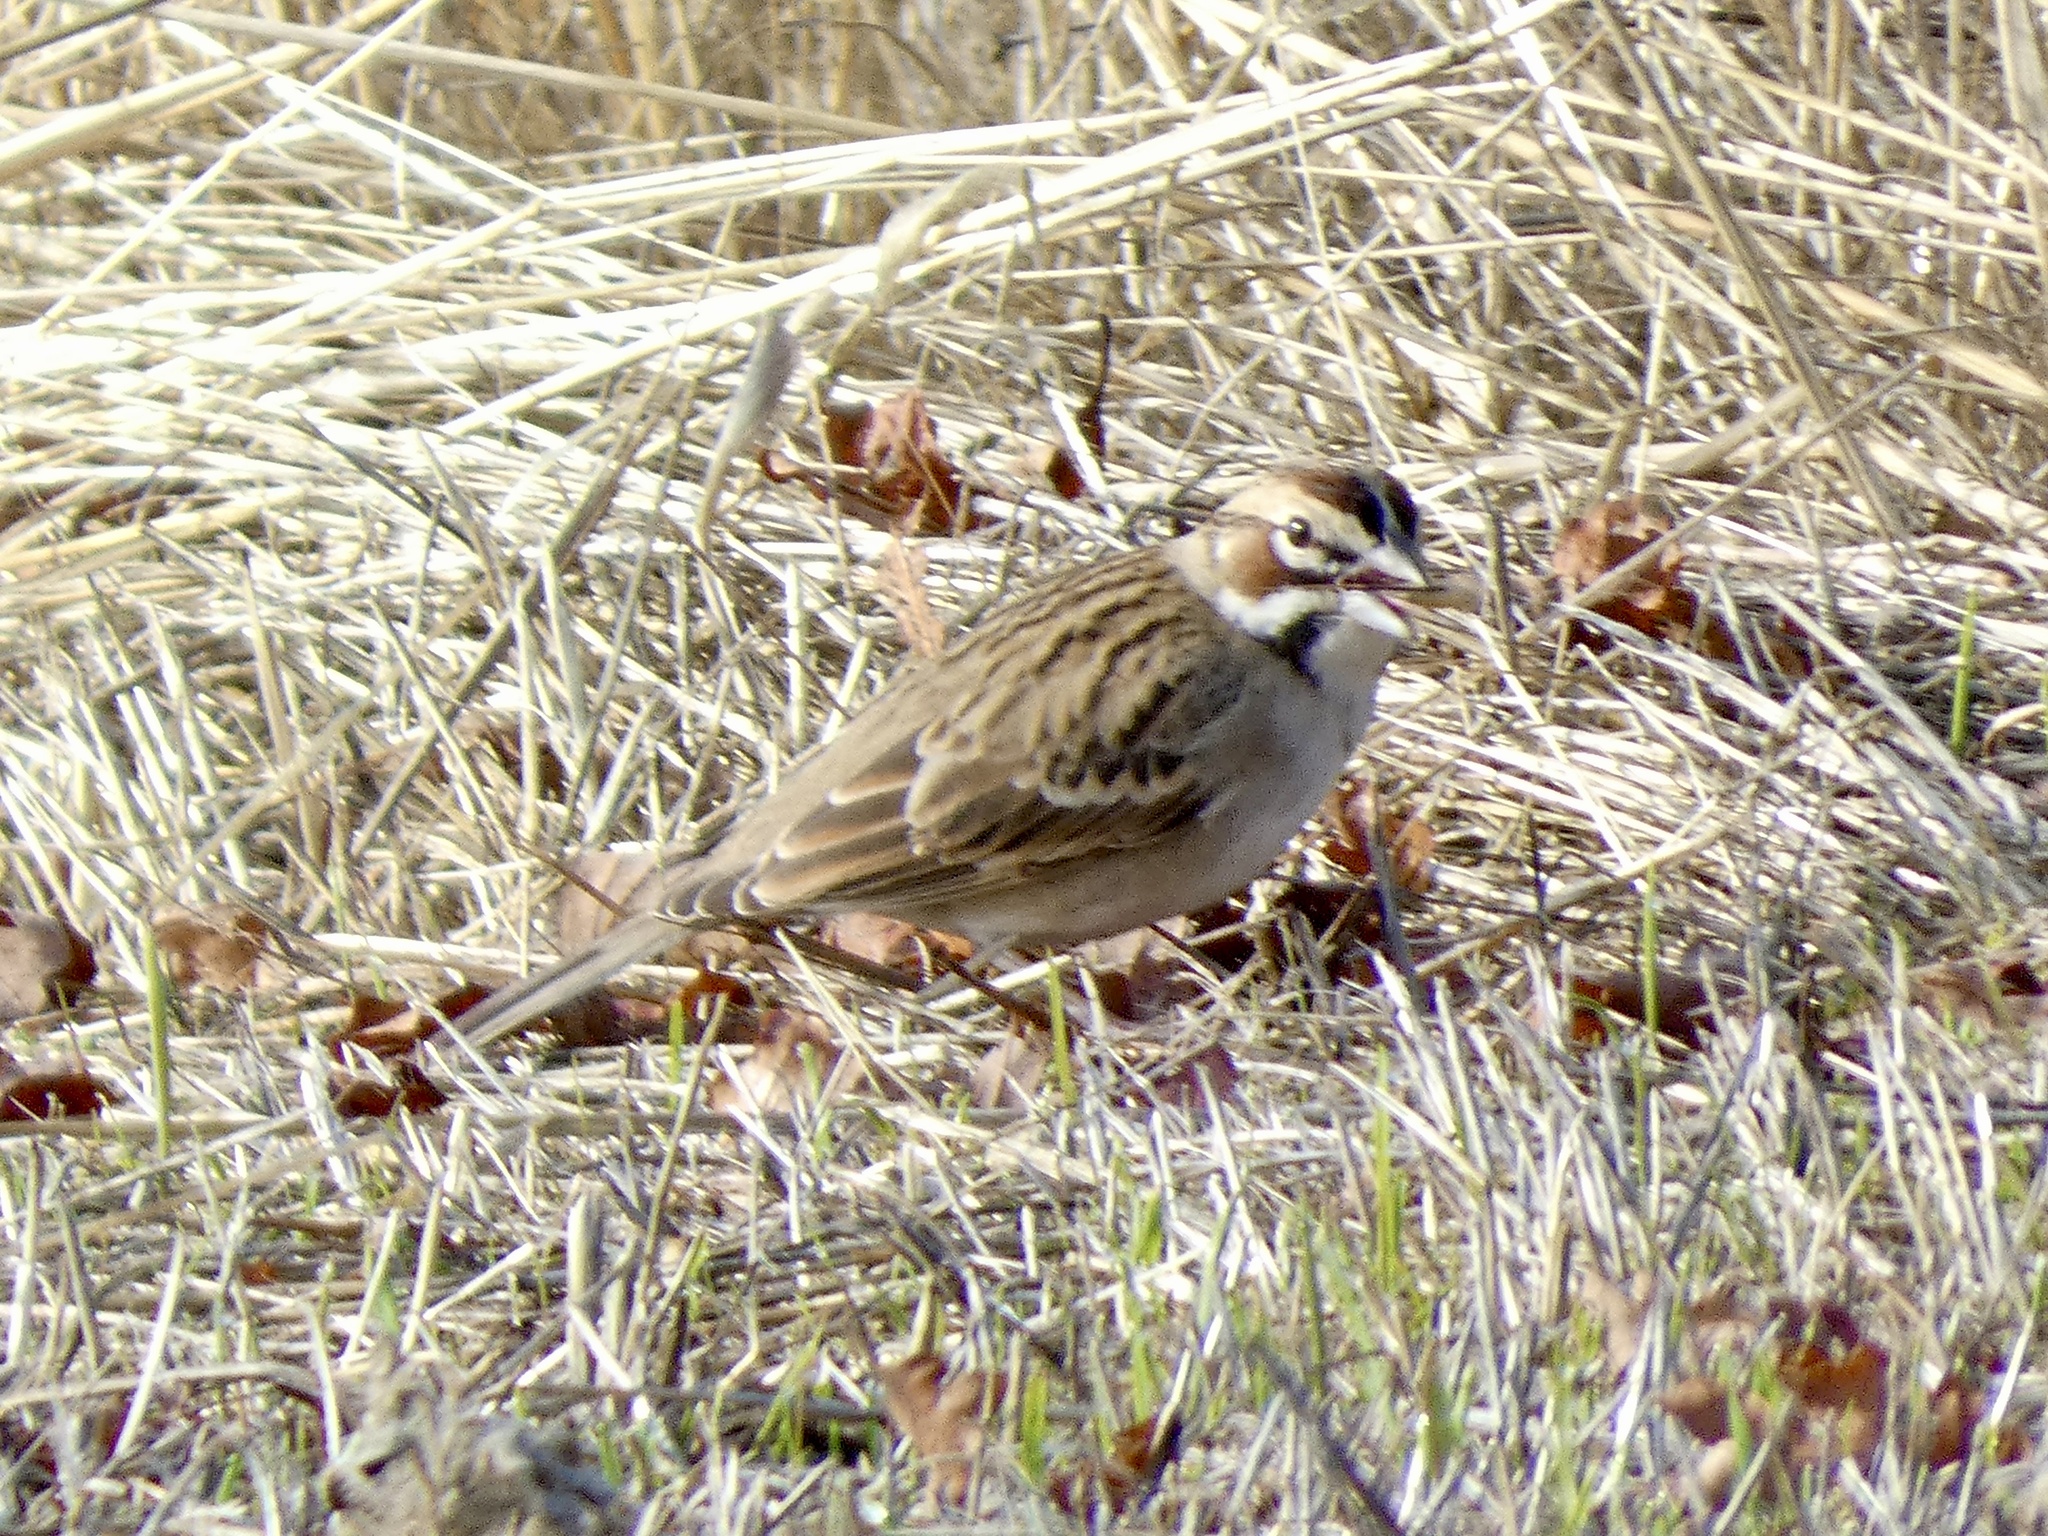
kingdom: Animalia
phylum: Chordata
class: Aves
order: Passeriformes
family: Passerellidae
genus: Chondestes
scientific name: Chondestes grammacus
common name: Lark sparrow
